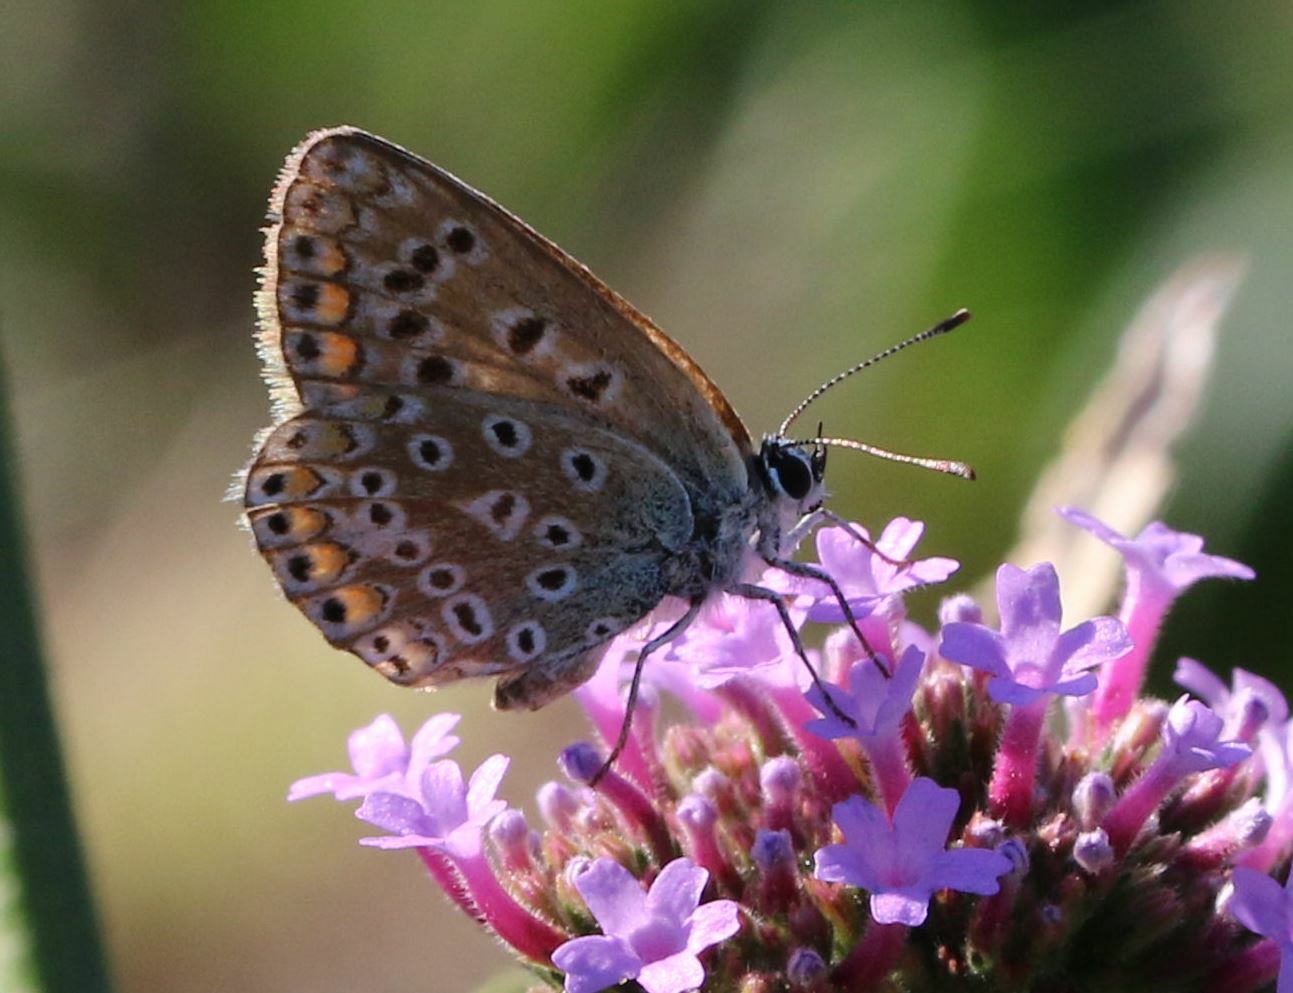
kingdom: Animalia
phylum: Arthropoda
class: Insecta
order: Lepidoptera
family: Lycaenidae
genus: Polyommatus
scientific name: Polyommatus icarus
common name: Common blue
